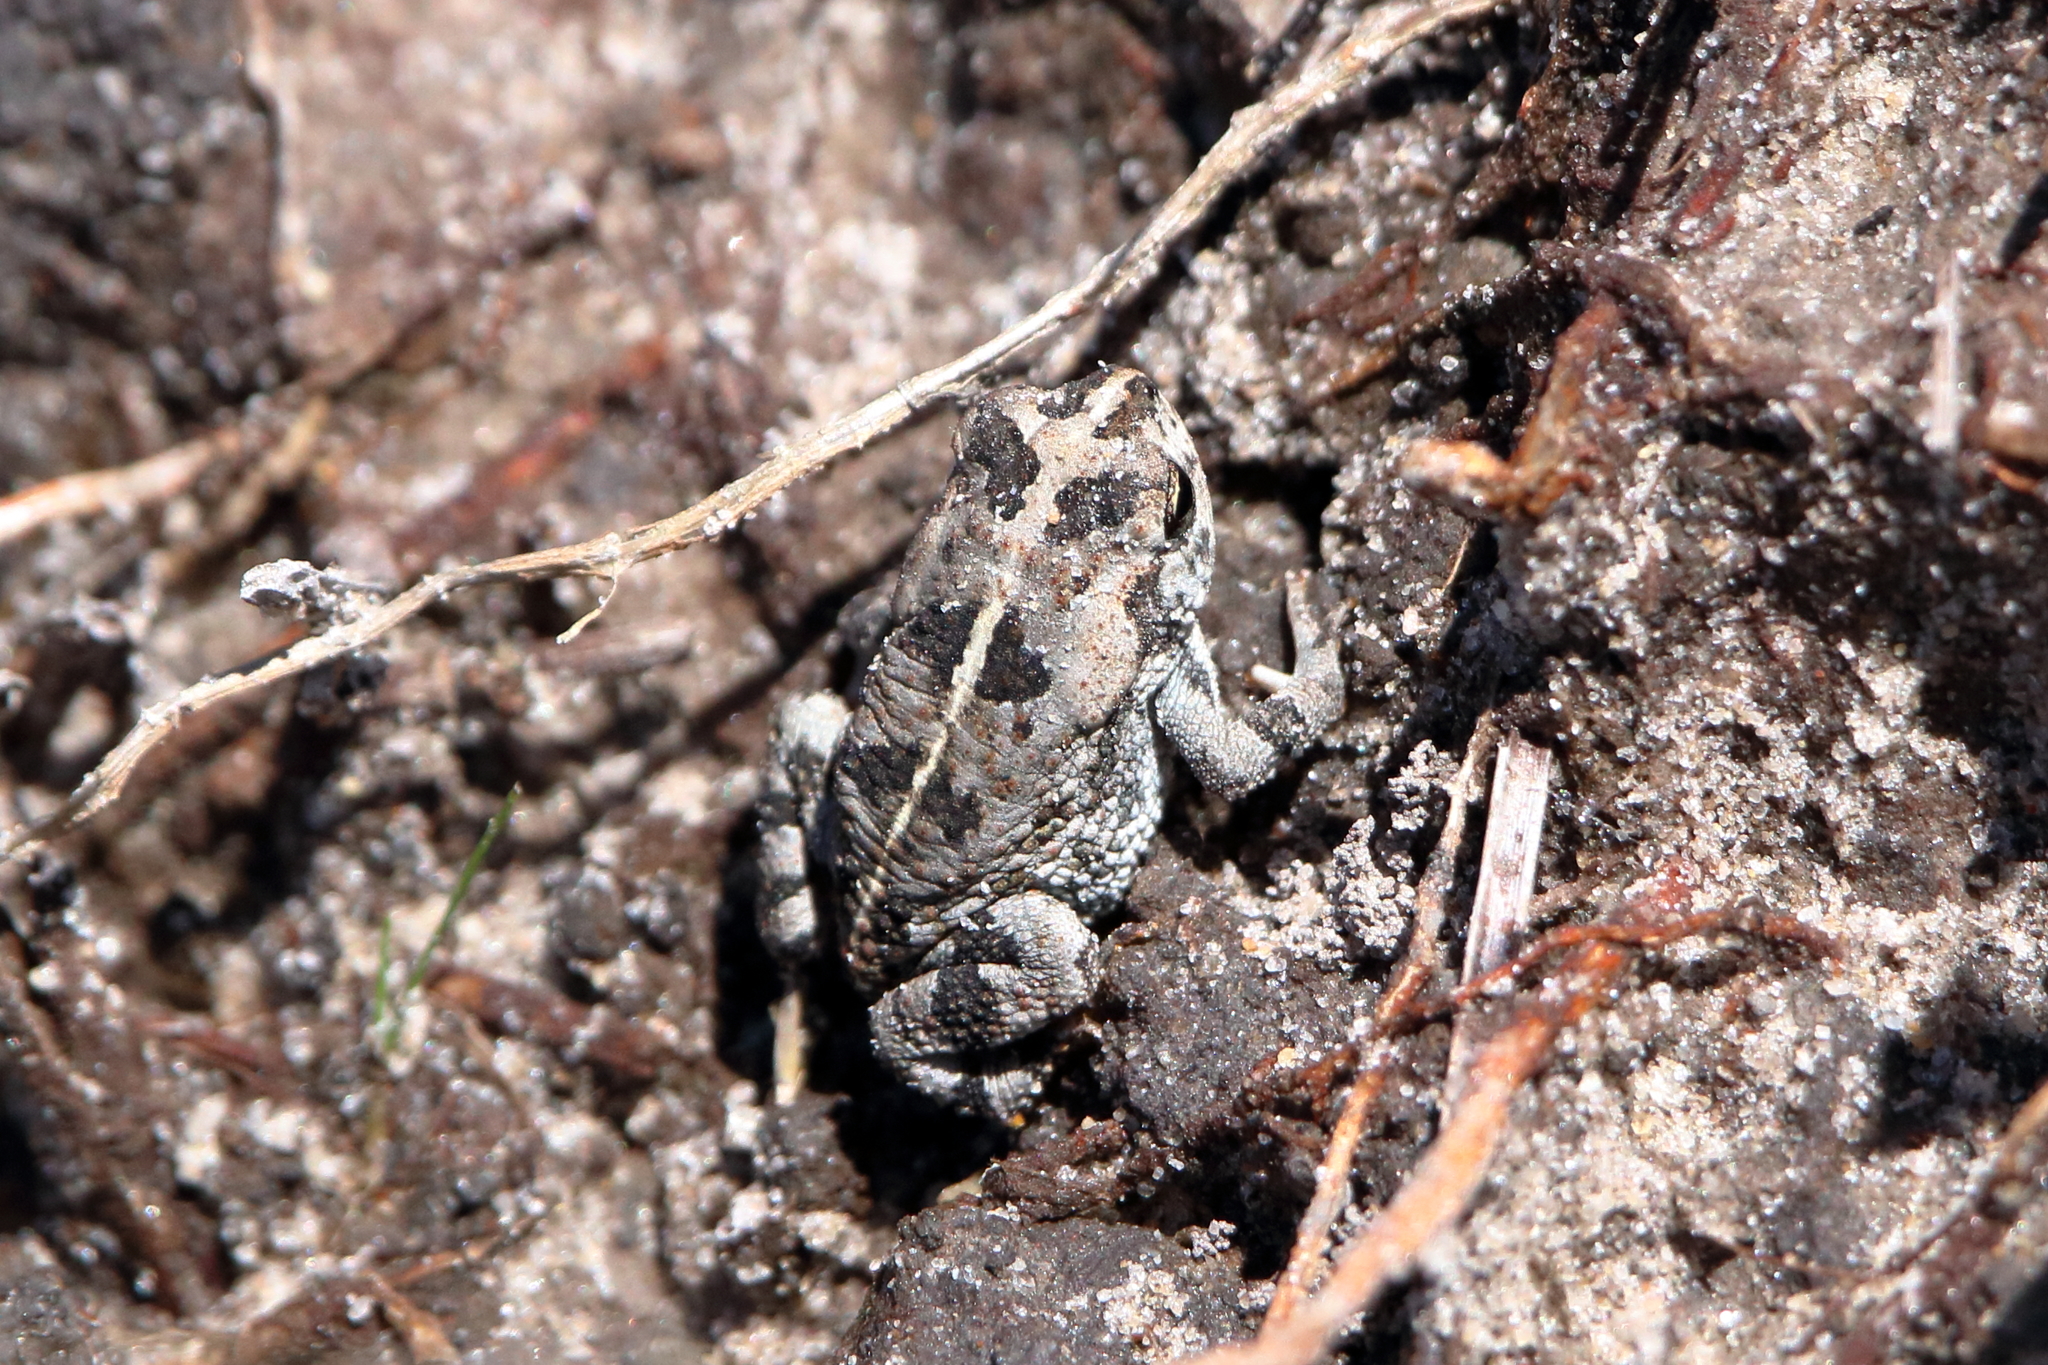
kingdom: Animalia
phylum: Chordata
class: Amphibia
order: Anura
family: Bufonidae
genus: Anaxyrus
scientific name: Anaxyrus quercicus
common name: Oak toad
